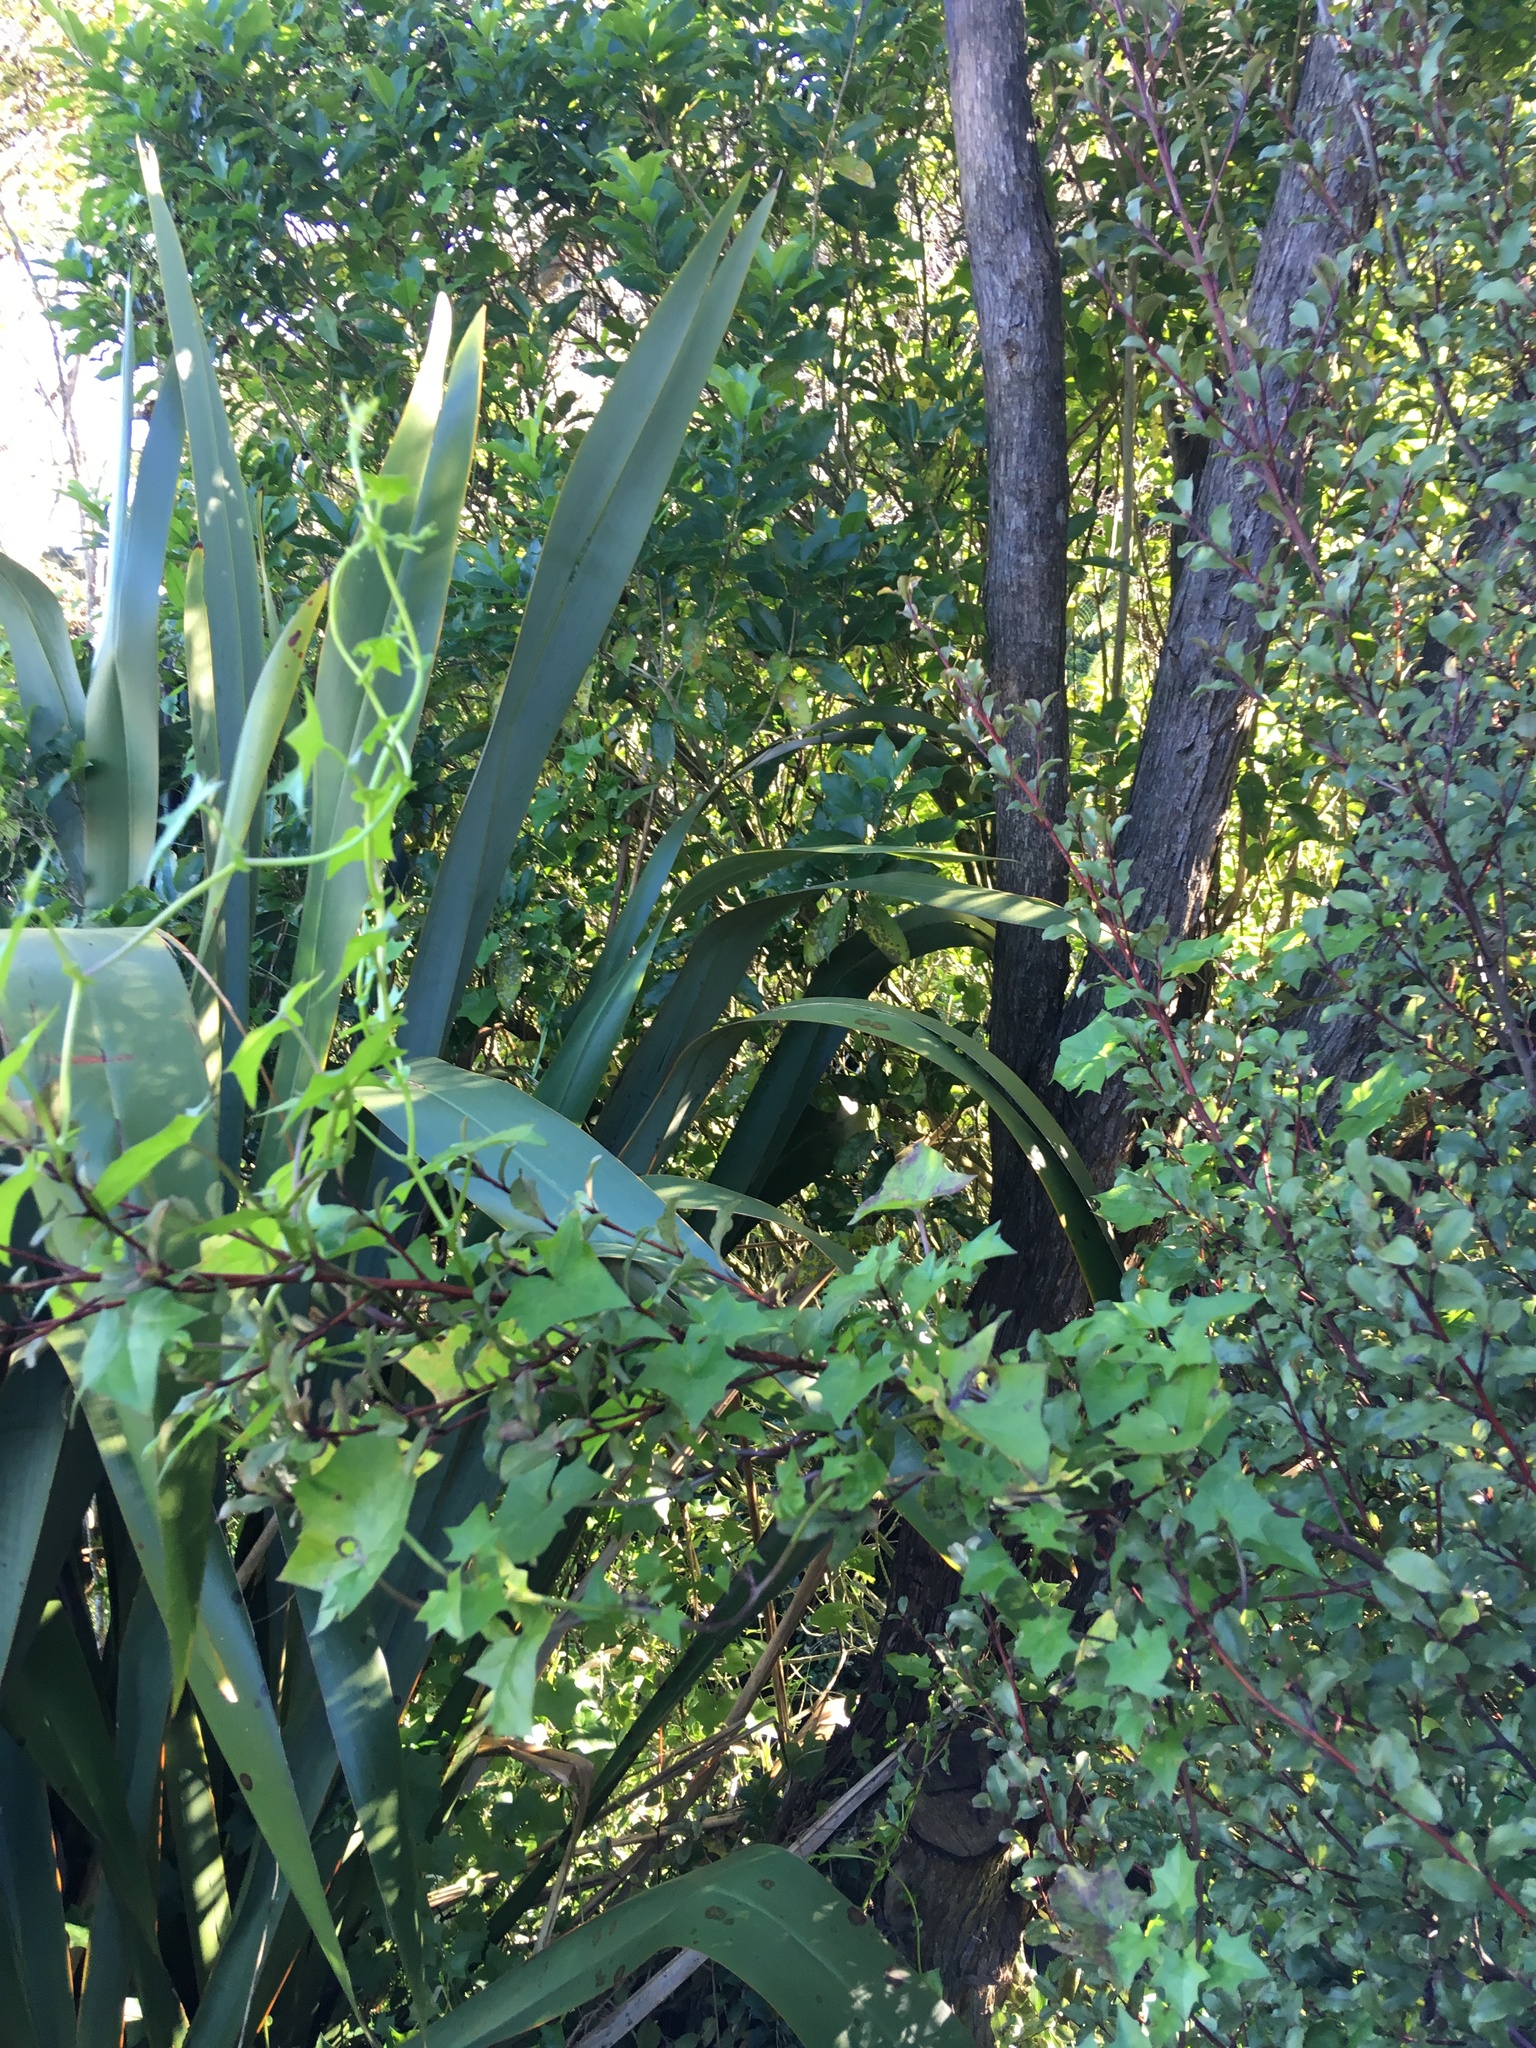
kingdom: Plantae
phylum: Tracheophyta
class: Magnoliopsida
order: Ericales
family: Primulaceae
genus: Myrsine
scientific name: Myrsine australis
